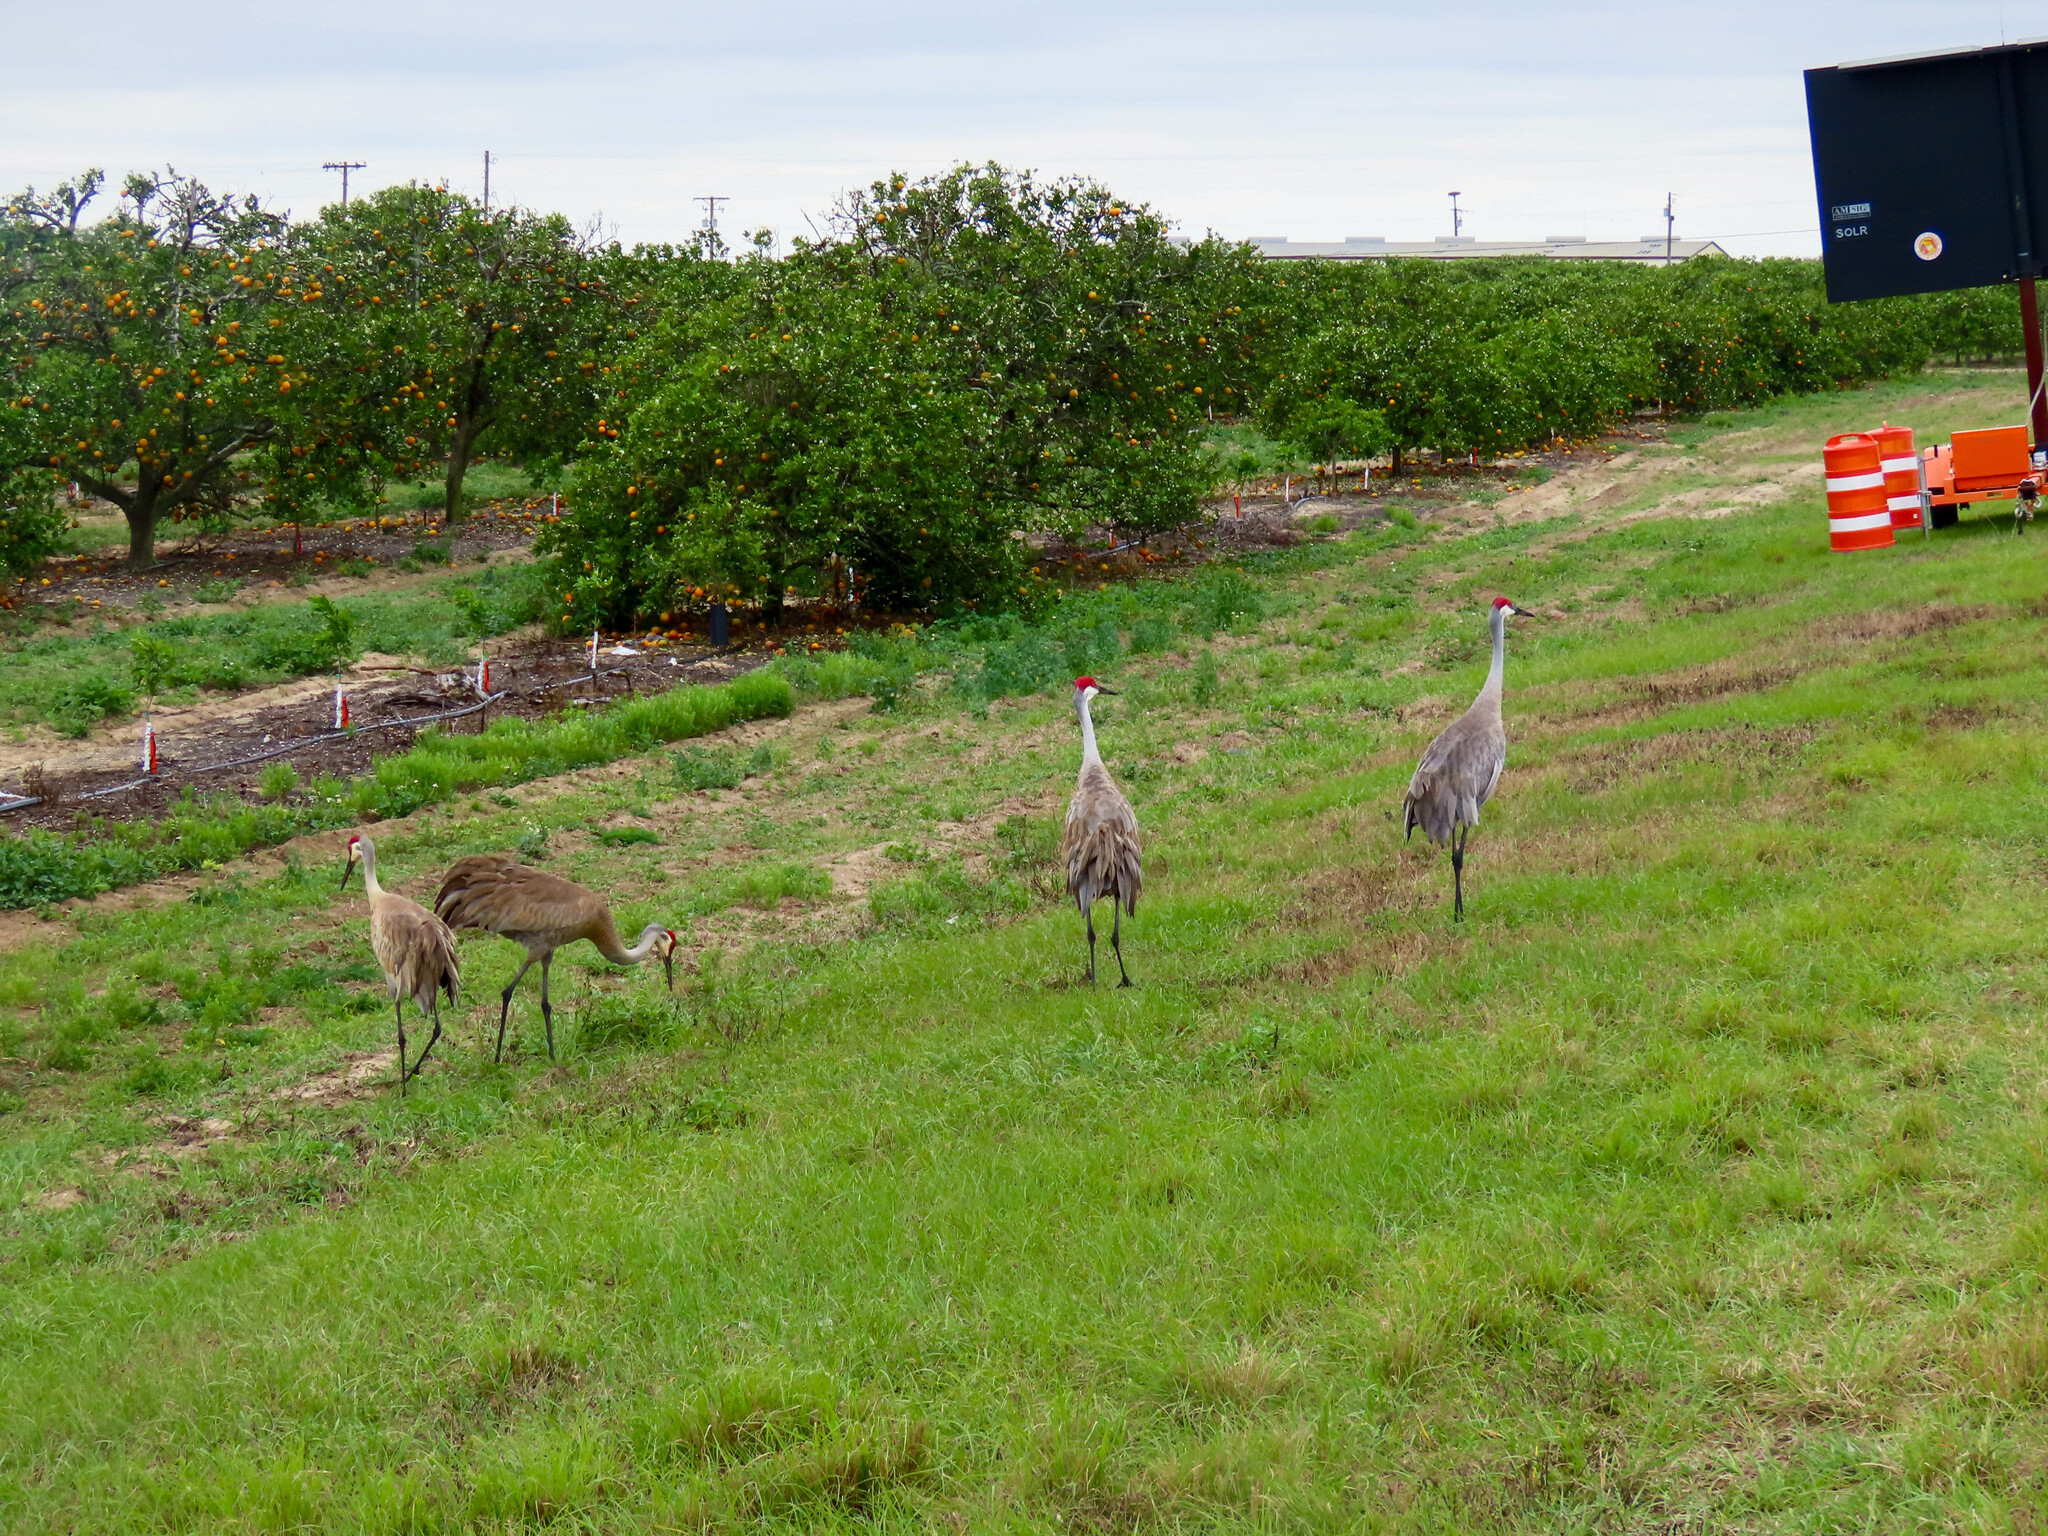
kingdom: Animalia
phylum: Chordata
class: Aves
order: Gruiformes
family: Gruidae
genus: Grus
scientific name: Grus canadensis
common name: Sandhill crane
